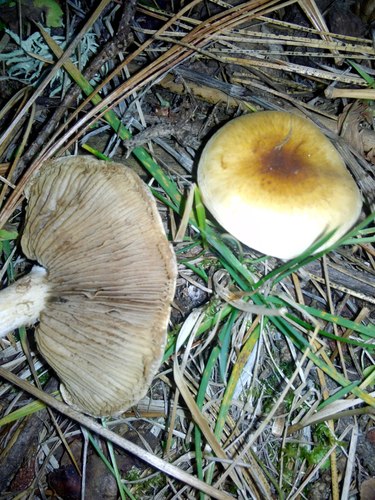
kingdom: Fungi
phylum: Basidiomycota
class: Agaricomycetes
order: Agaricales
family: Strophariaceae
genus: Hypholoma
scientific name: Hypholoma capnoides
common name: Conifer tuft
